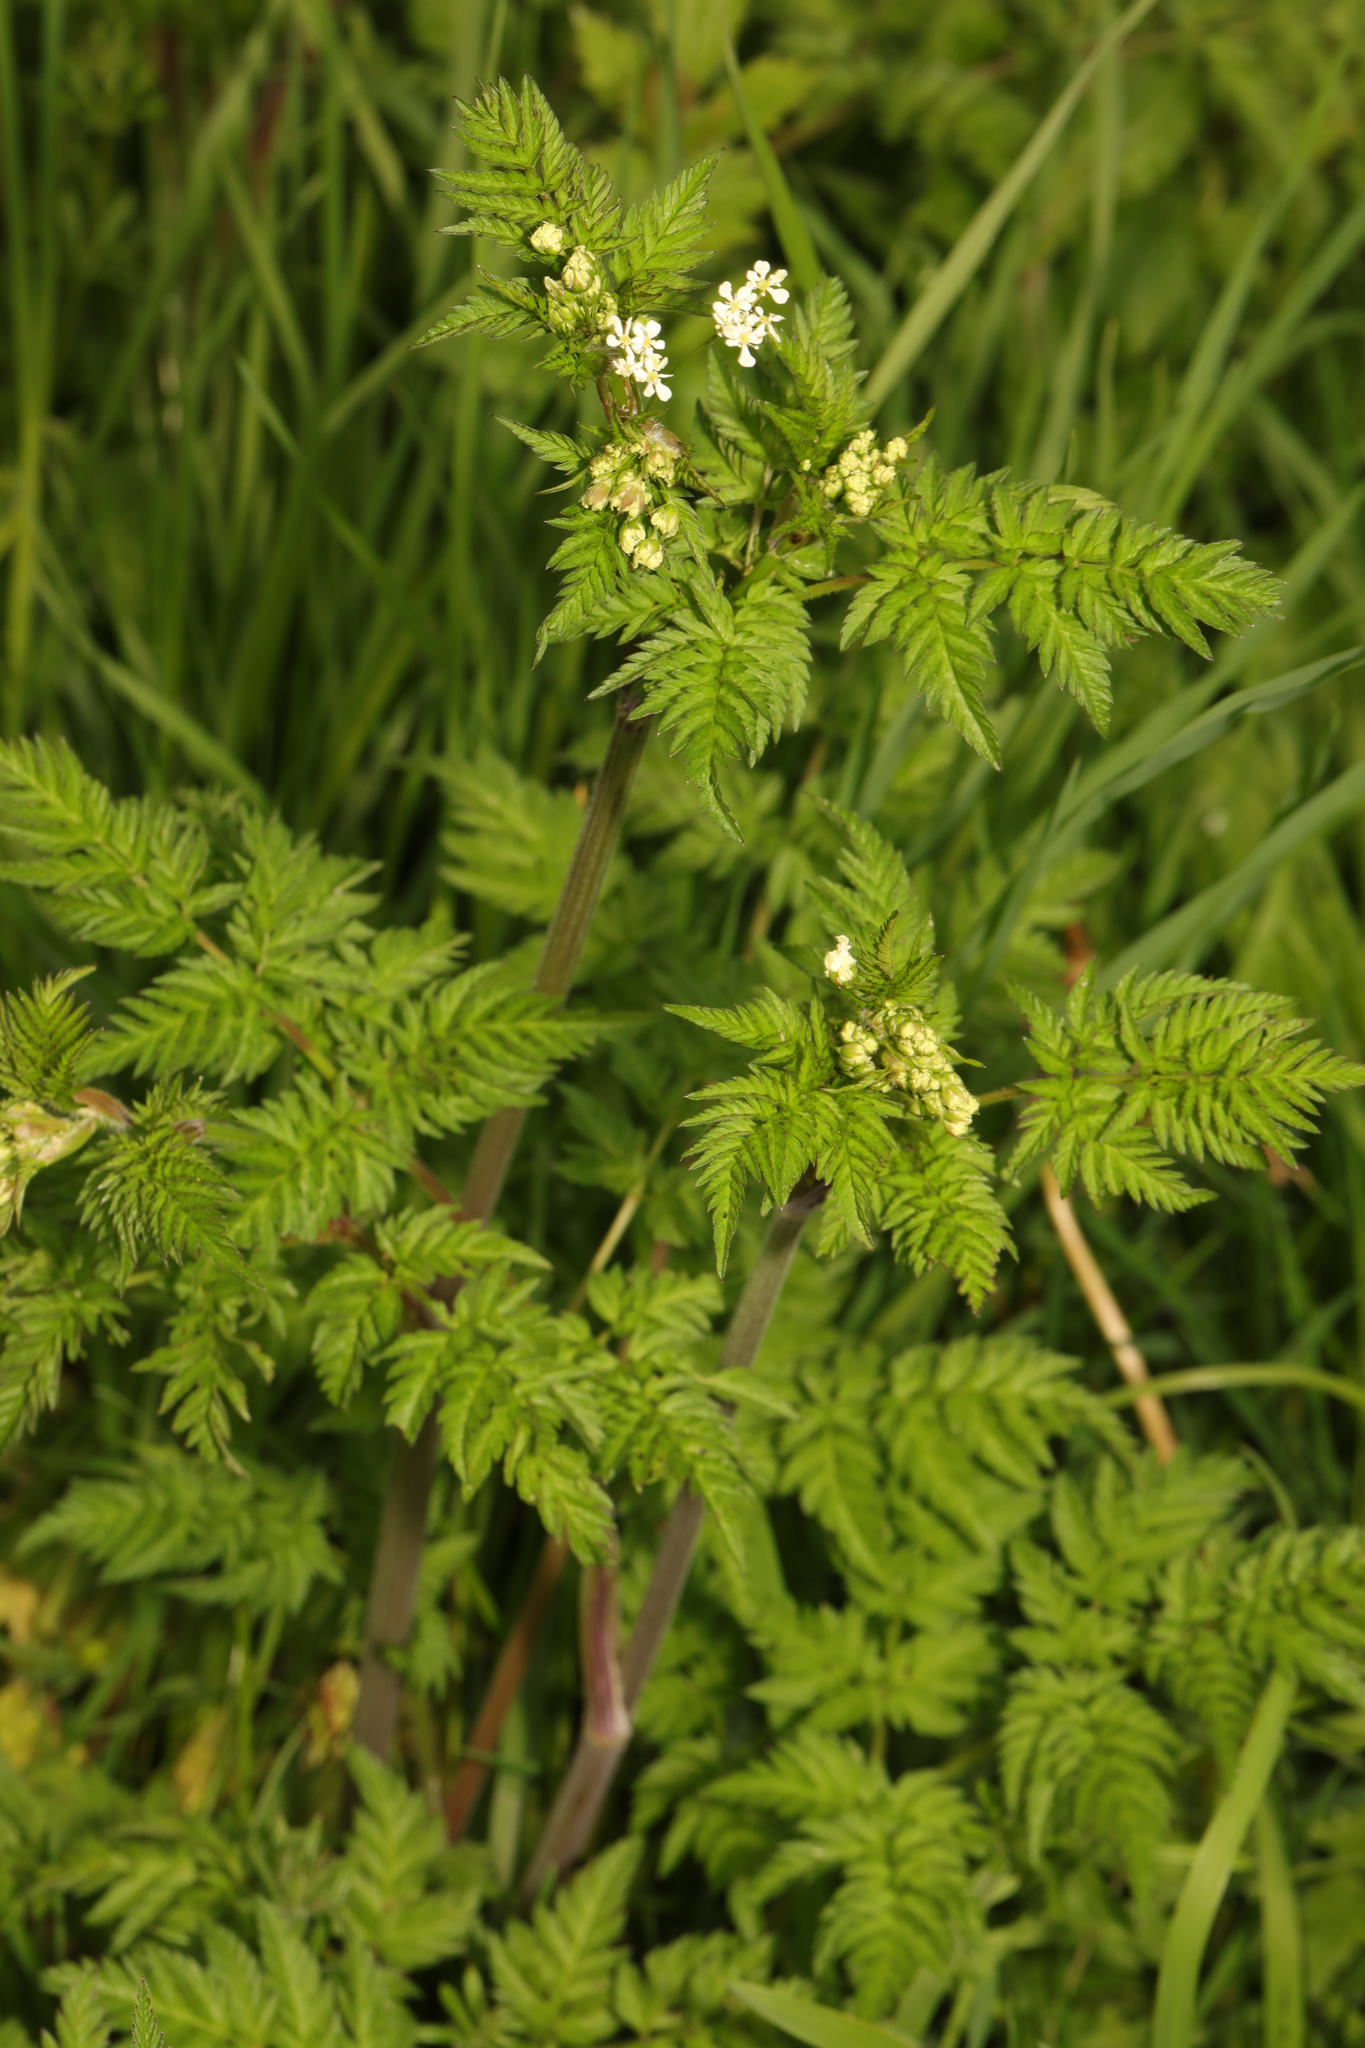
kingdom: Plantae
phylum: Tracheophyta
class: Magnoliopsida
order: Apiales
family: Apiaceae
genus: Anthriscus
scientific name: Anthriscus sylvestris
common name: Cow parsley
